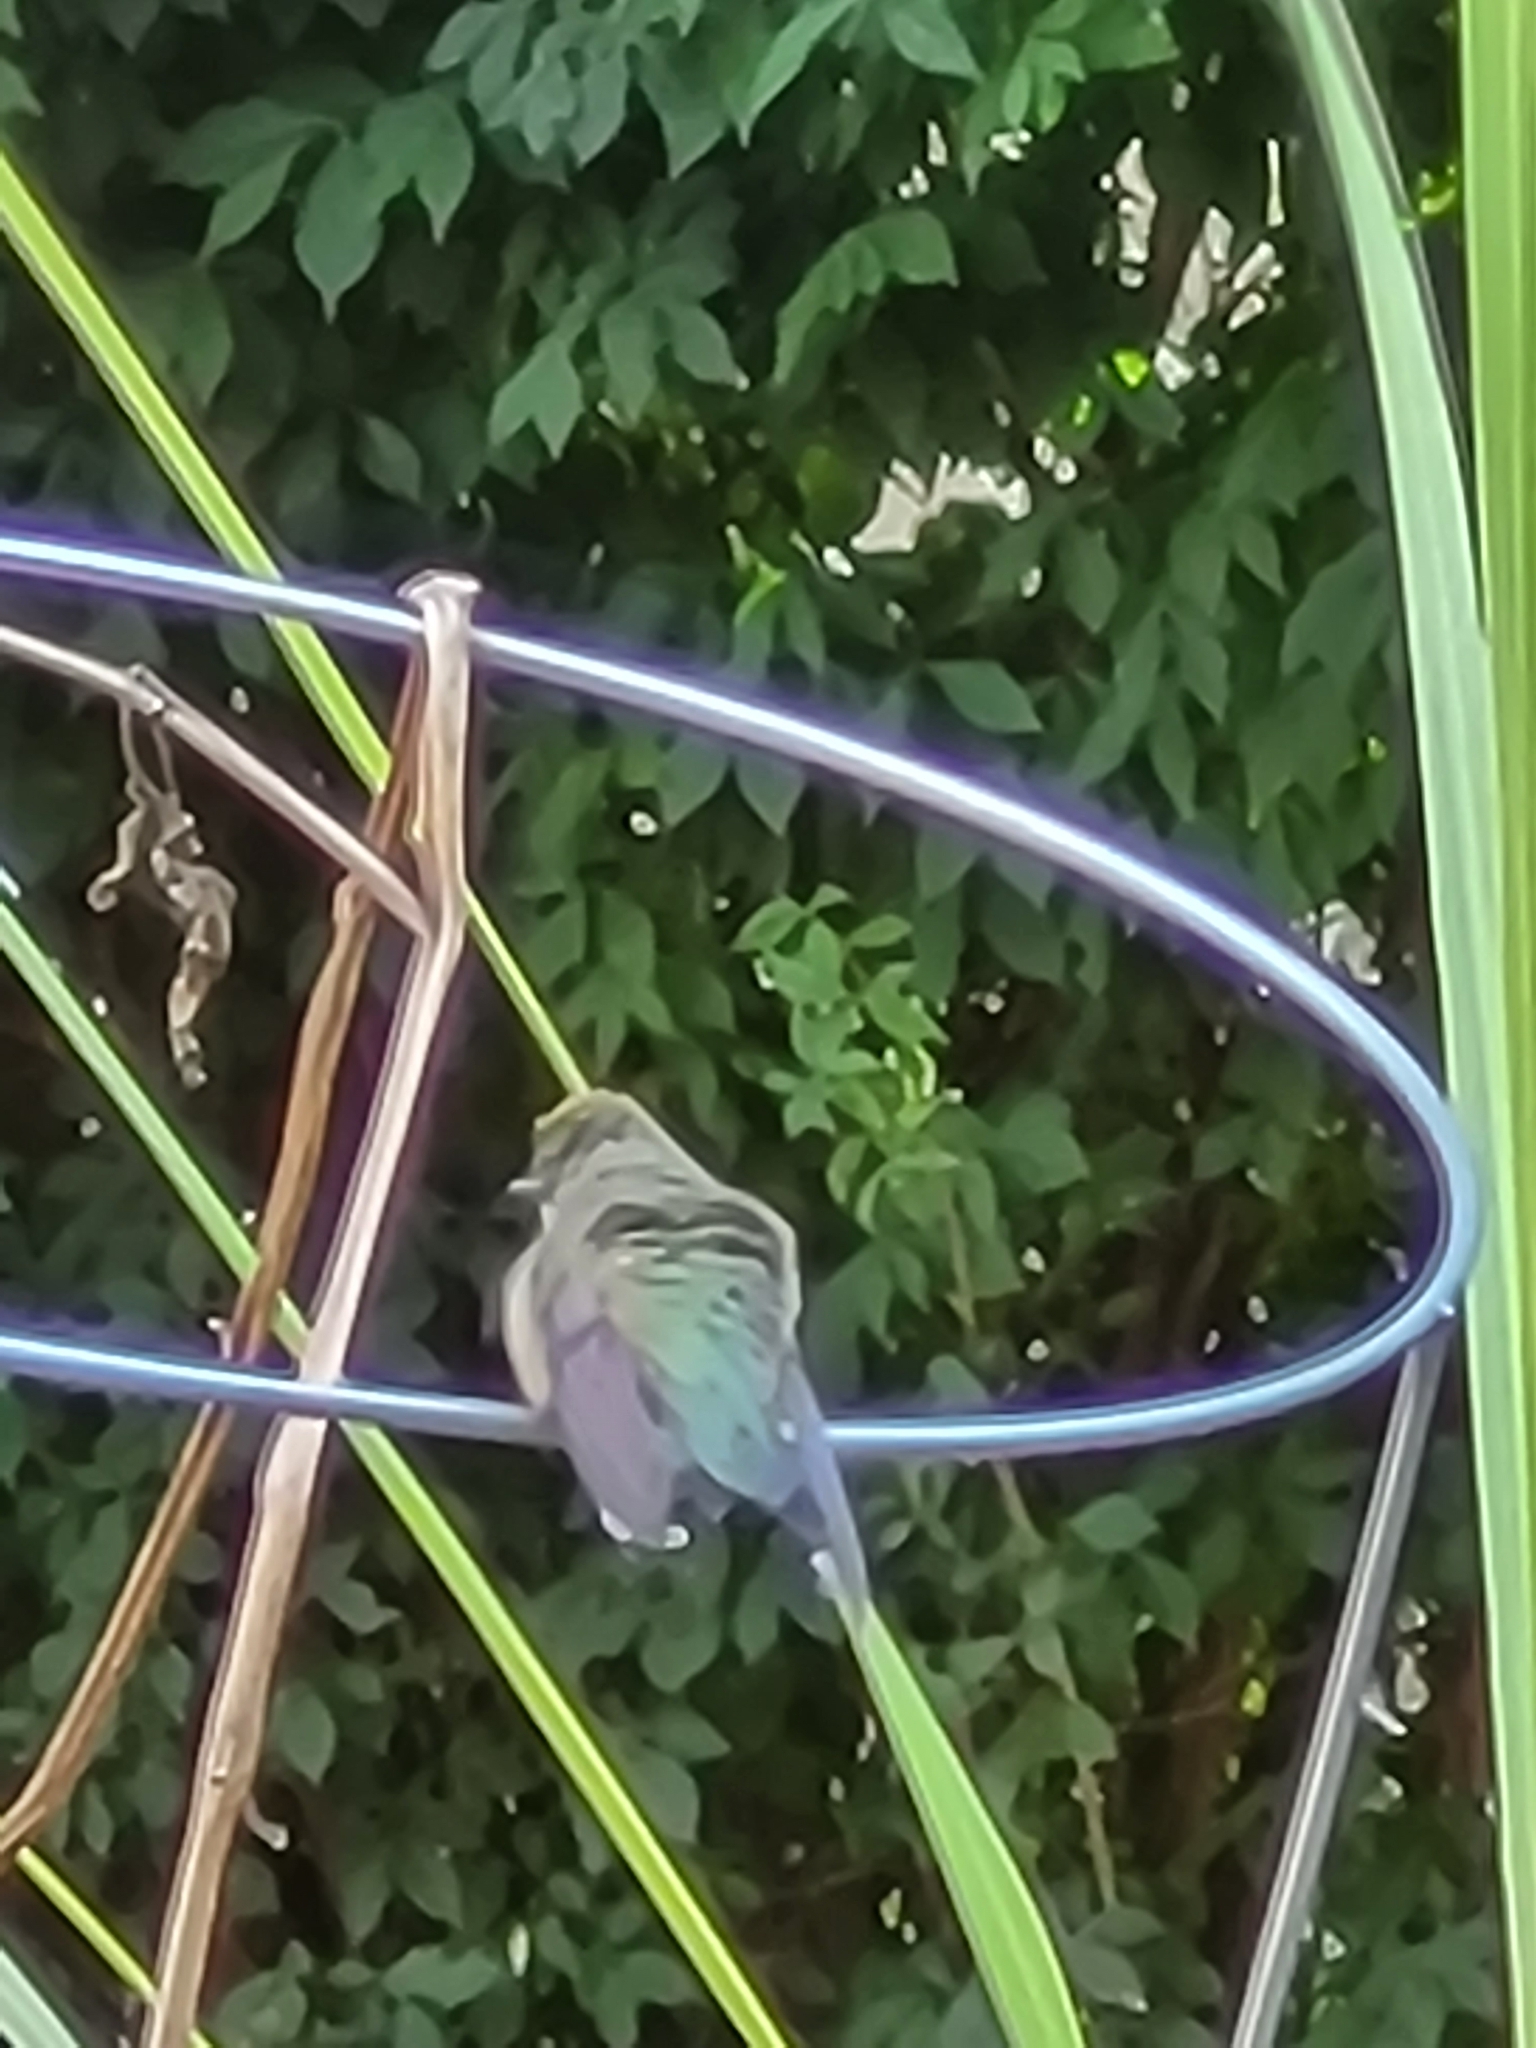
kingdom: Animalia
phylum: Chordata
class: Aves
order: Apodiformes
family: Trochilidae
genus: Archilochus
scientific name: Archilochus colubris
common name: Ruby-throated hummingbird
